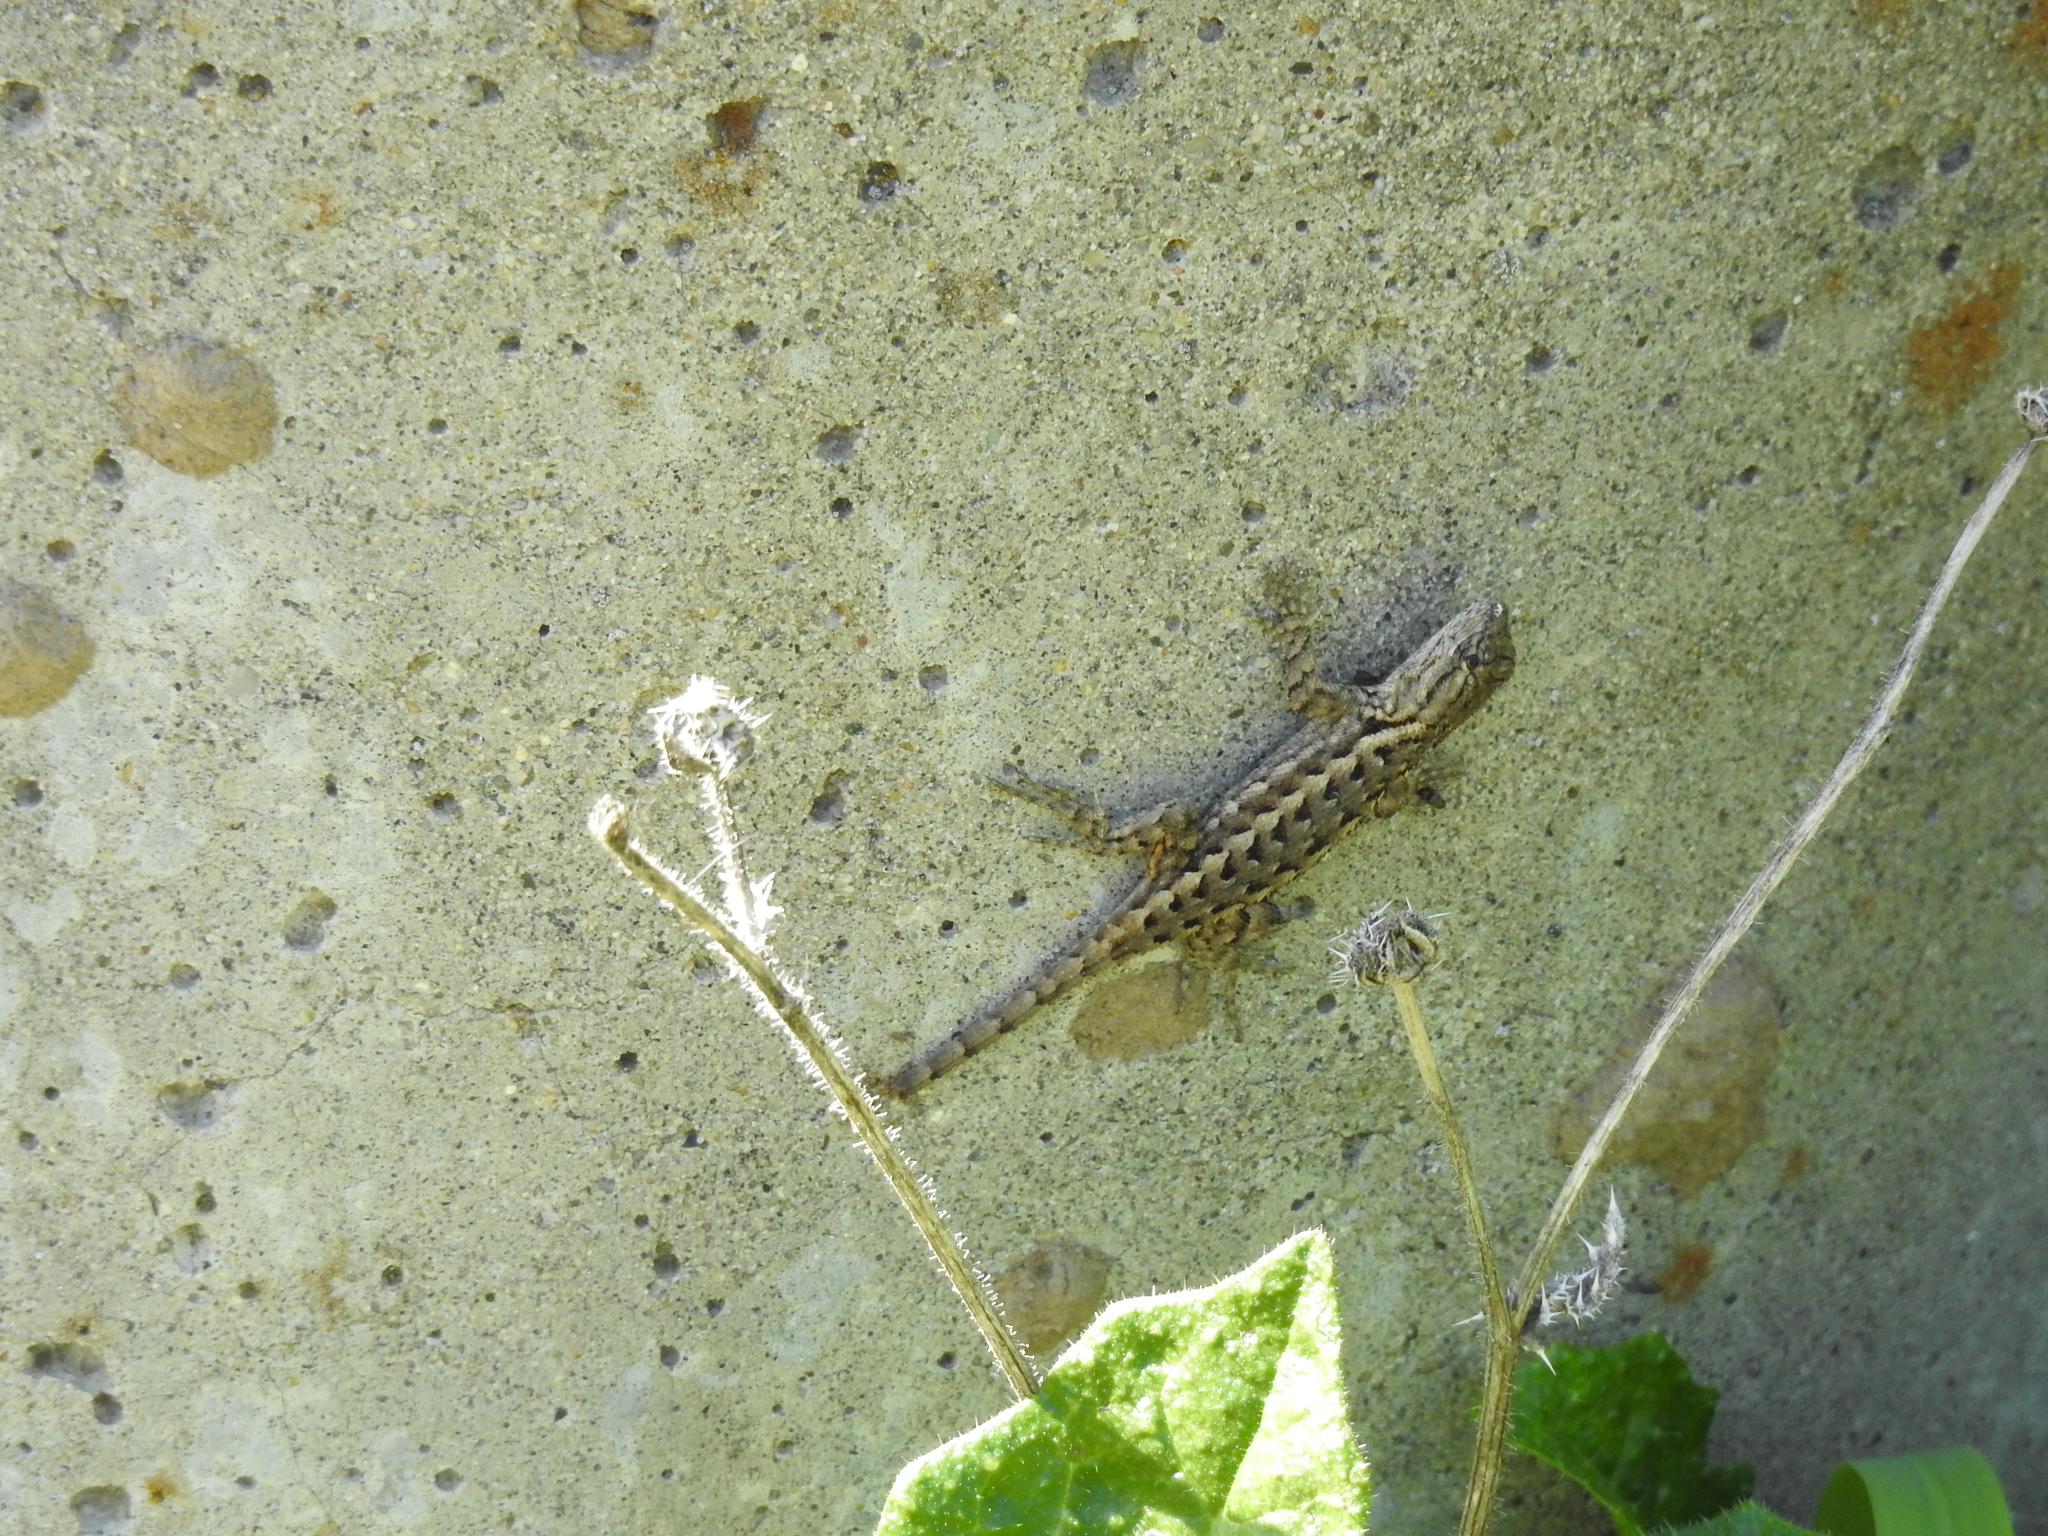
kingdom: Animalia
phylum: Chordata
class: Squamata
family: Phrynosomatidae
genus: Sceloporus
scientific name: Sceloporus occidentalis
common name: Western fence lizard
